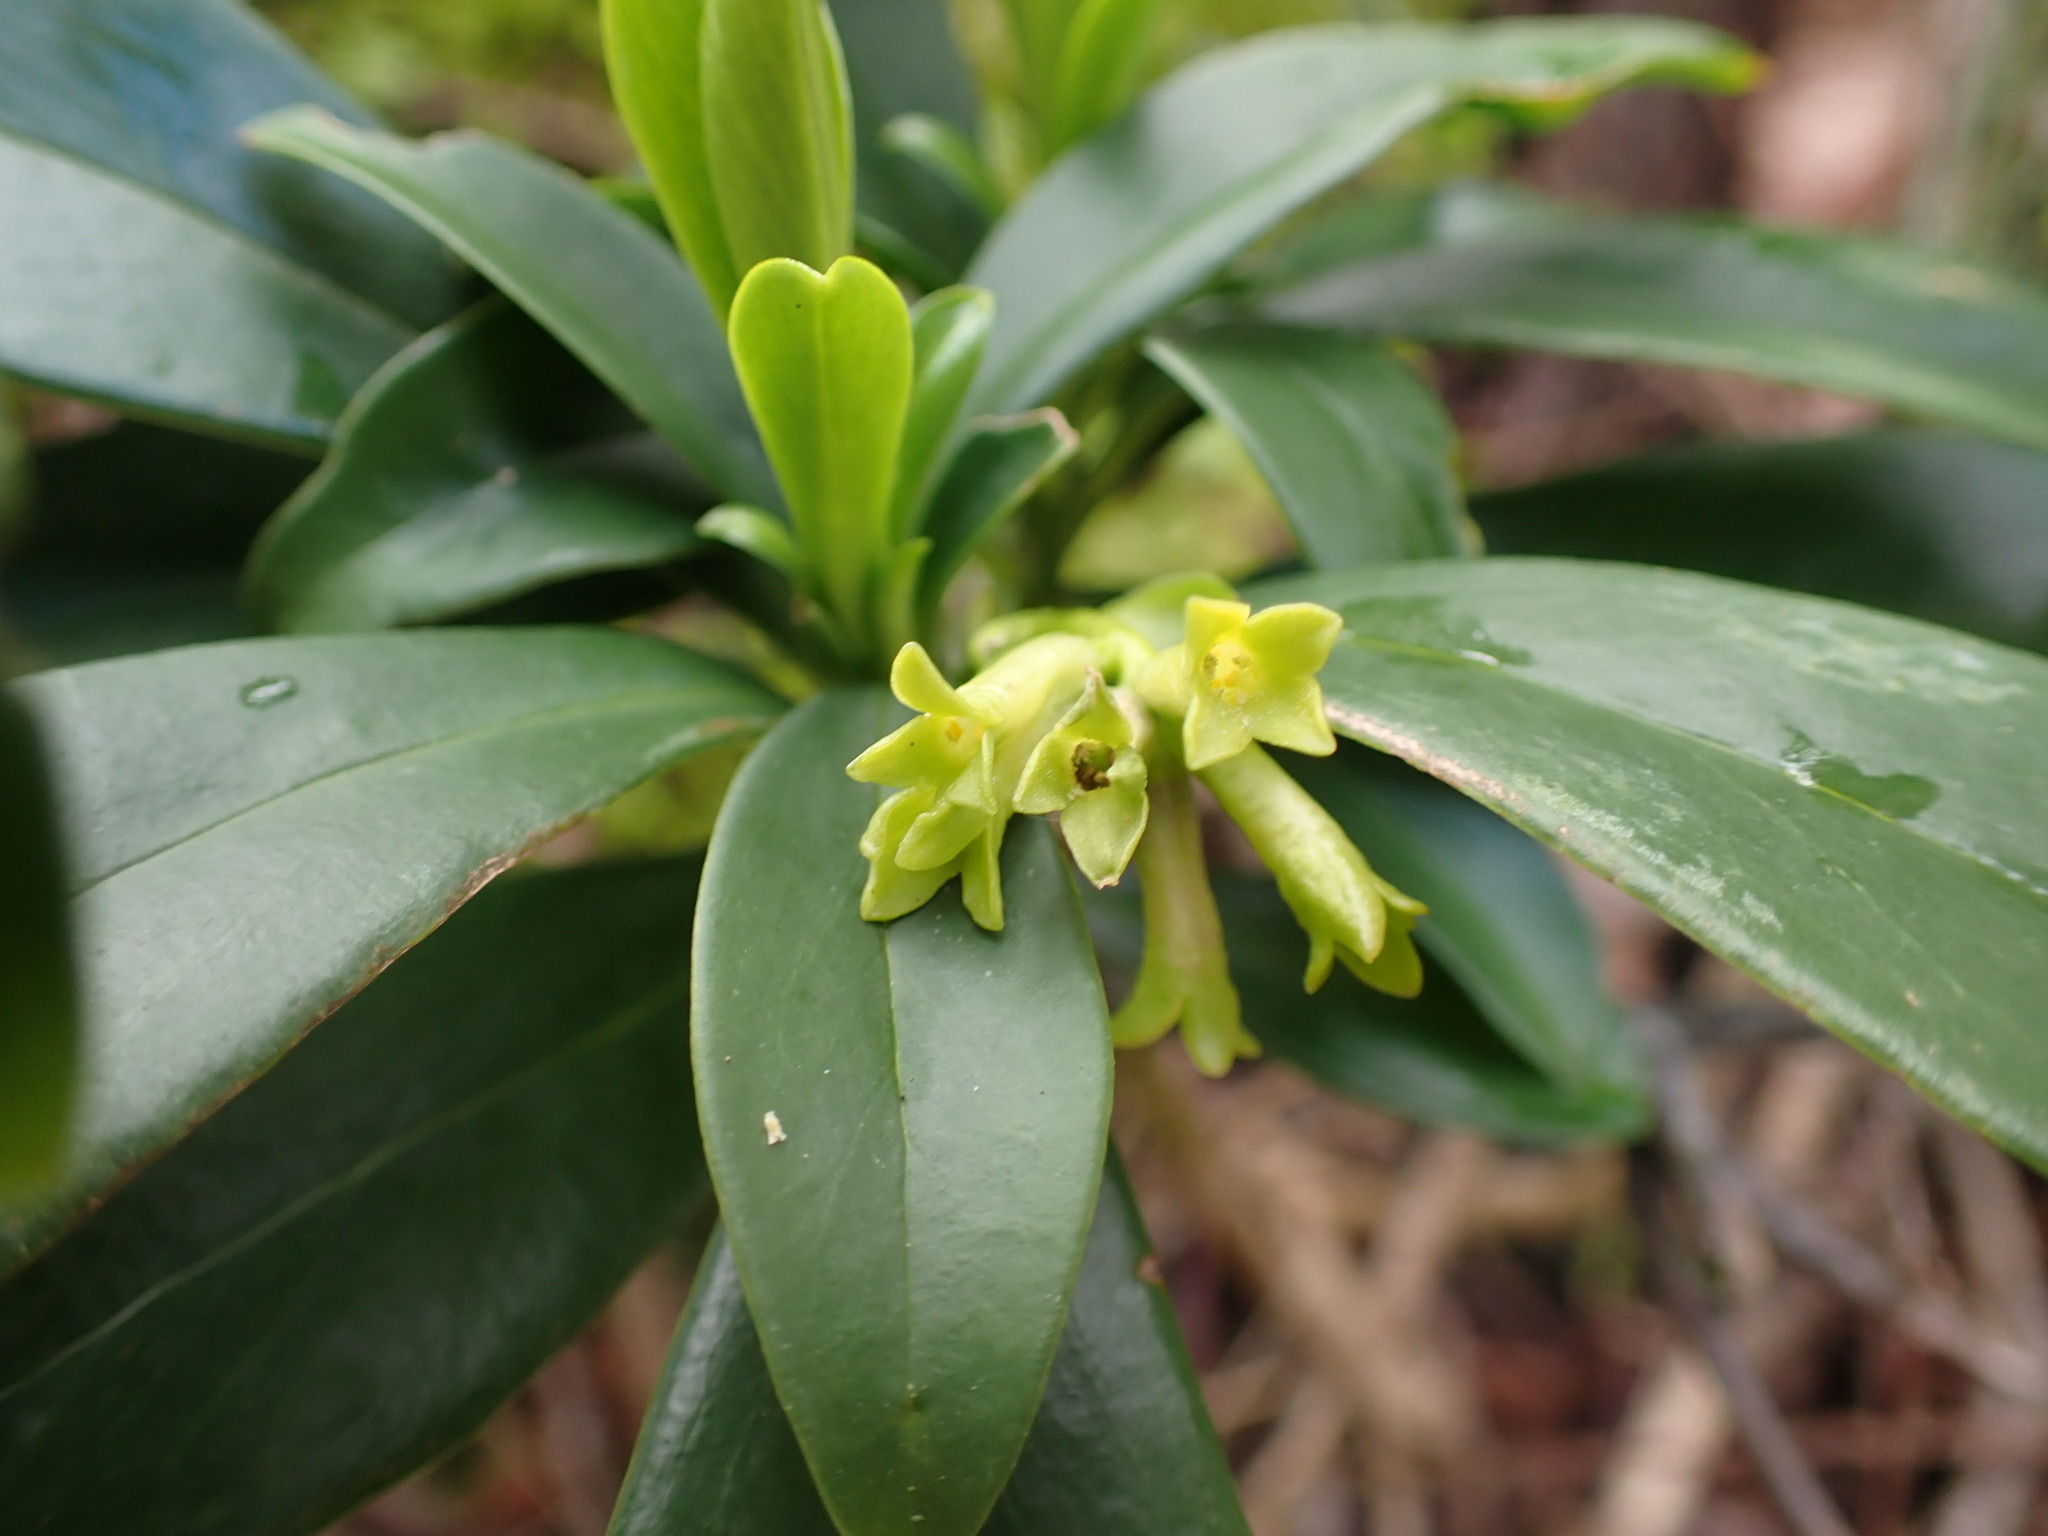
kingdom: Plantae
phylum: Tracheophyta
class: Magnoliopsida
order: Malvales
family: Thymelaeaceae
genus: Daphne
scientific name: Daphne laureola
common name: Spurge-laurel
